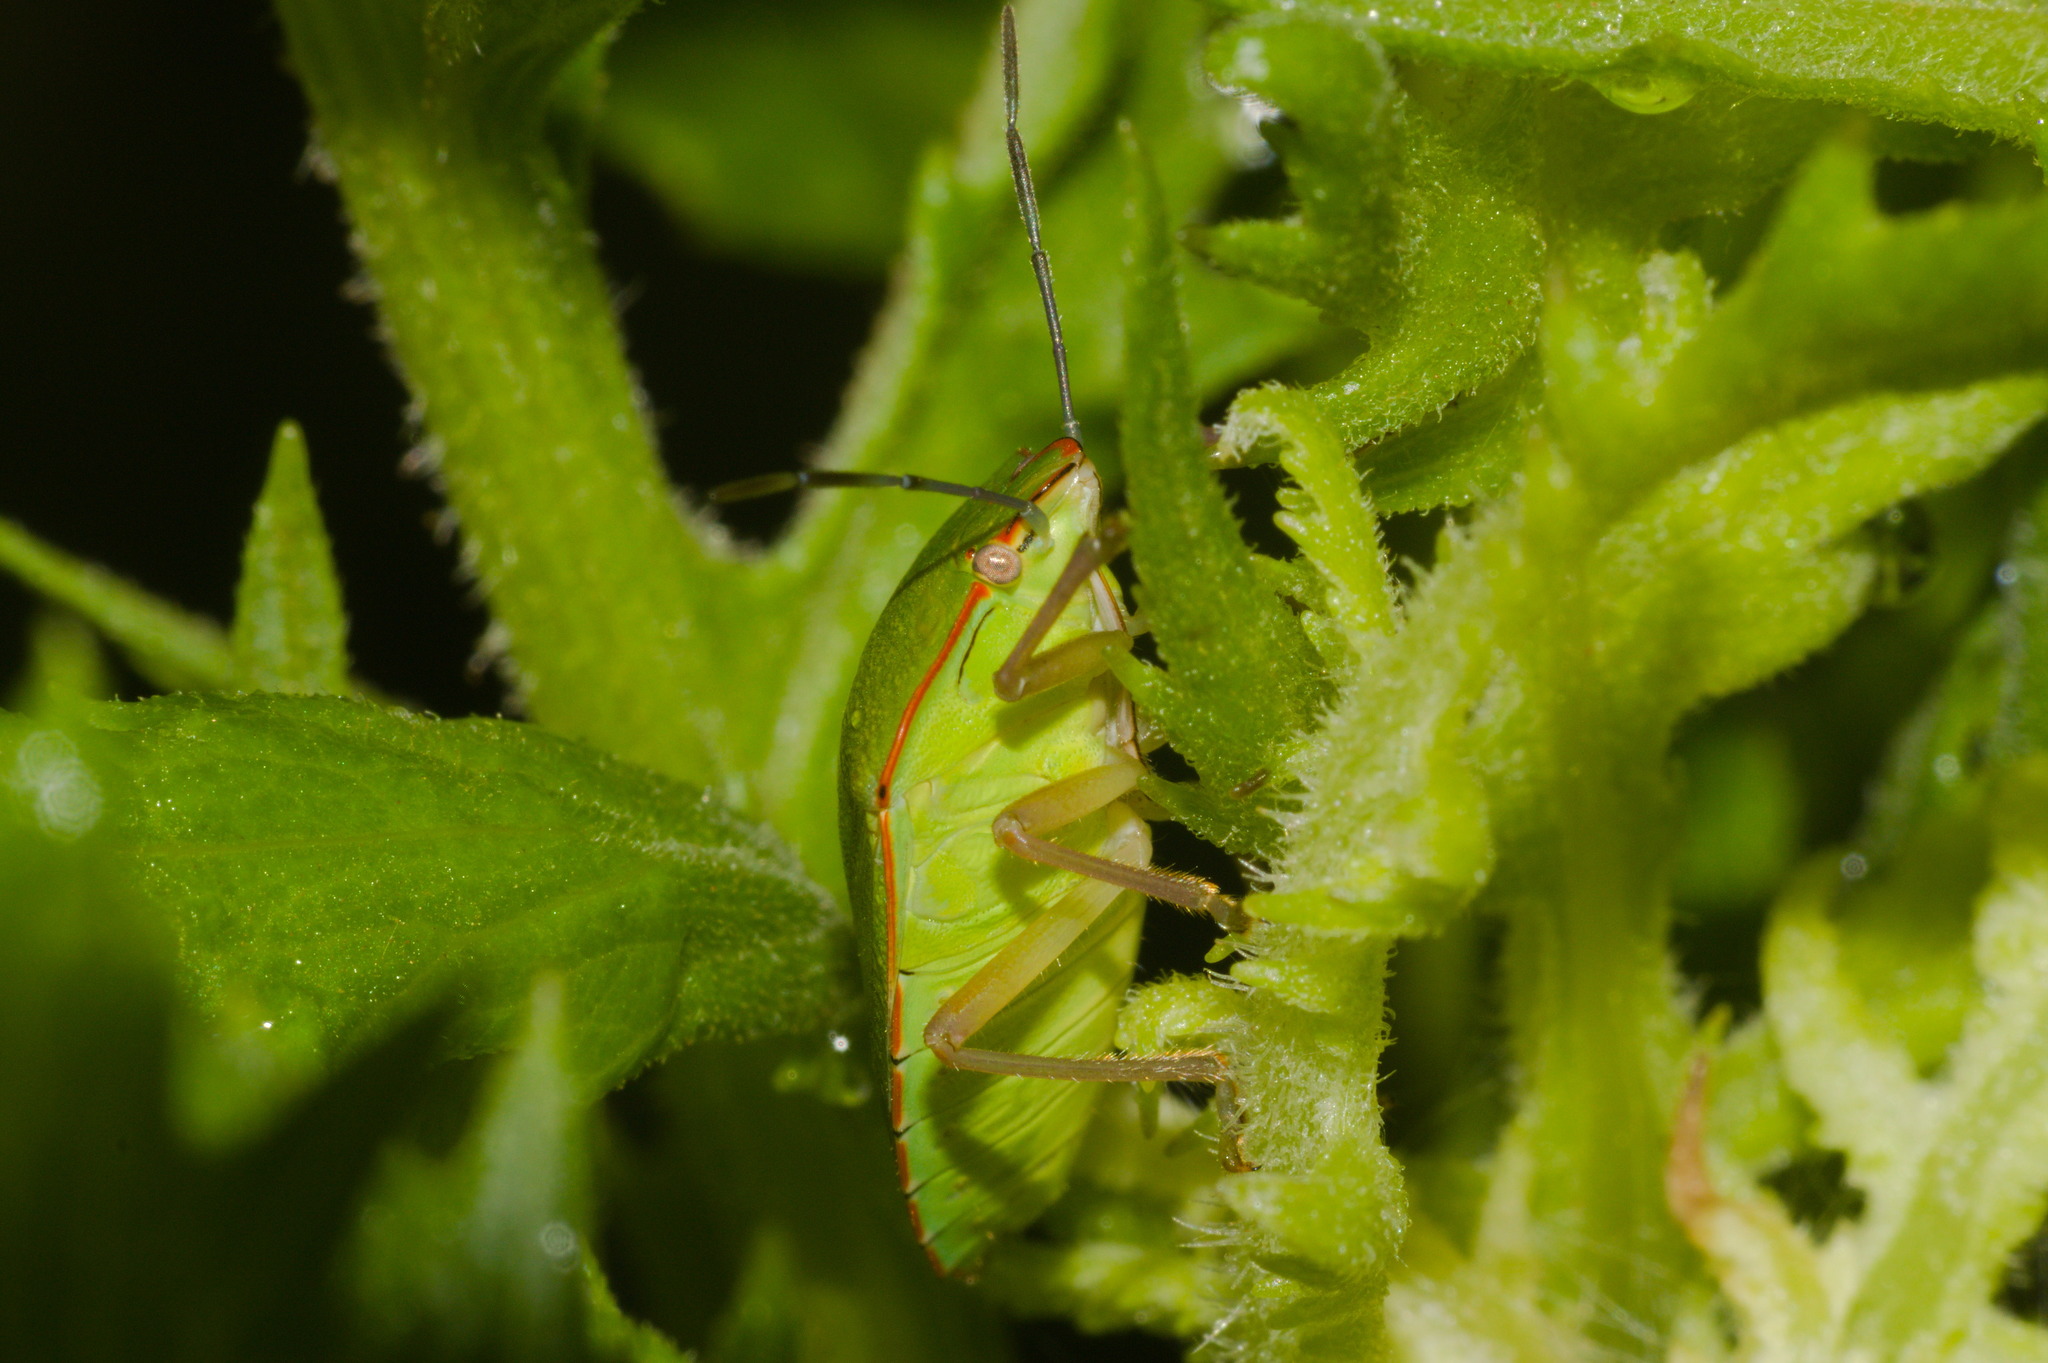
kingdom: Animalia
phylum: Arthropoda
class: Insecta
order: Hemiptera
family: Pentatomidae
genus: Chinavia
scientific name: Chinavia pengue
